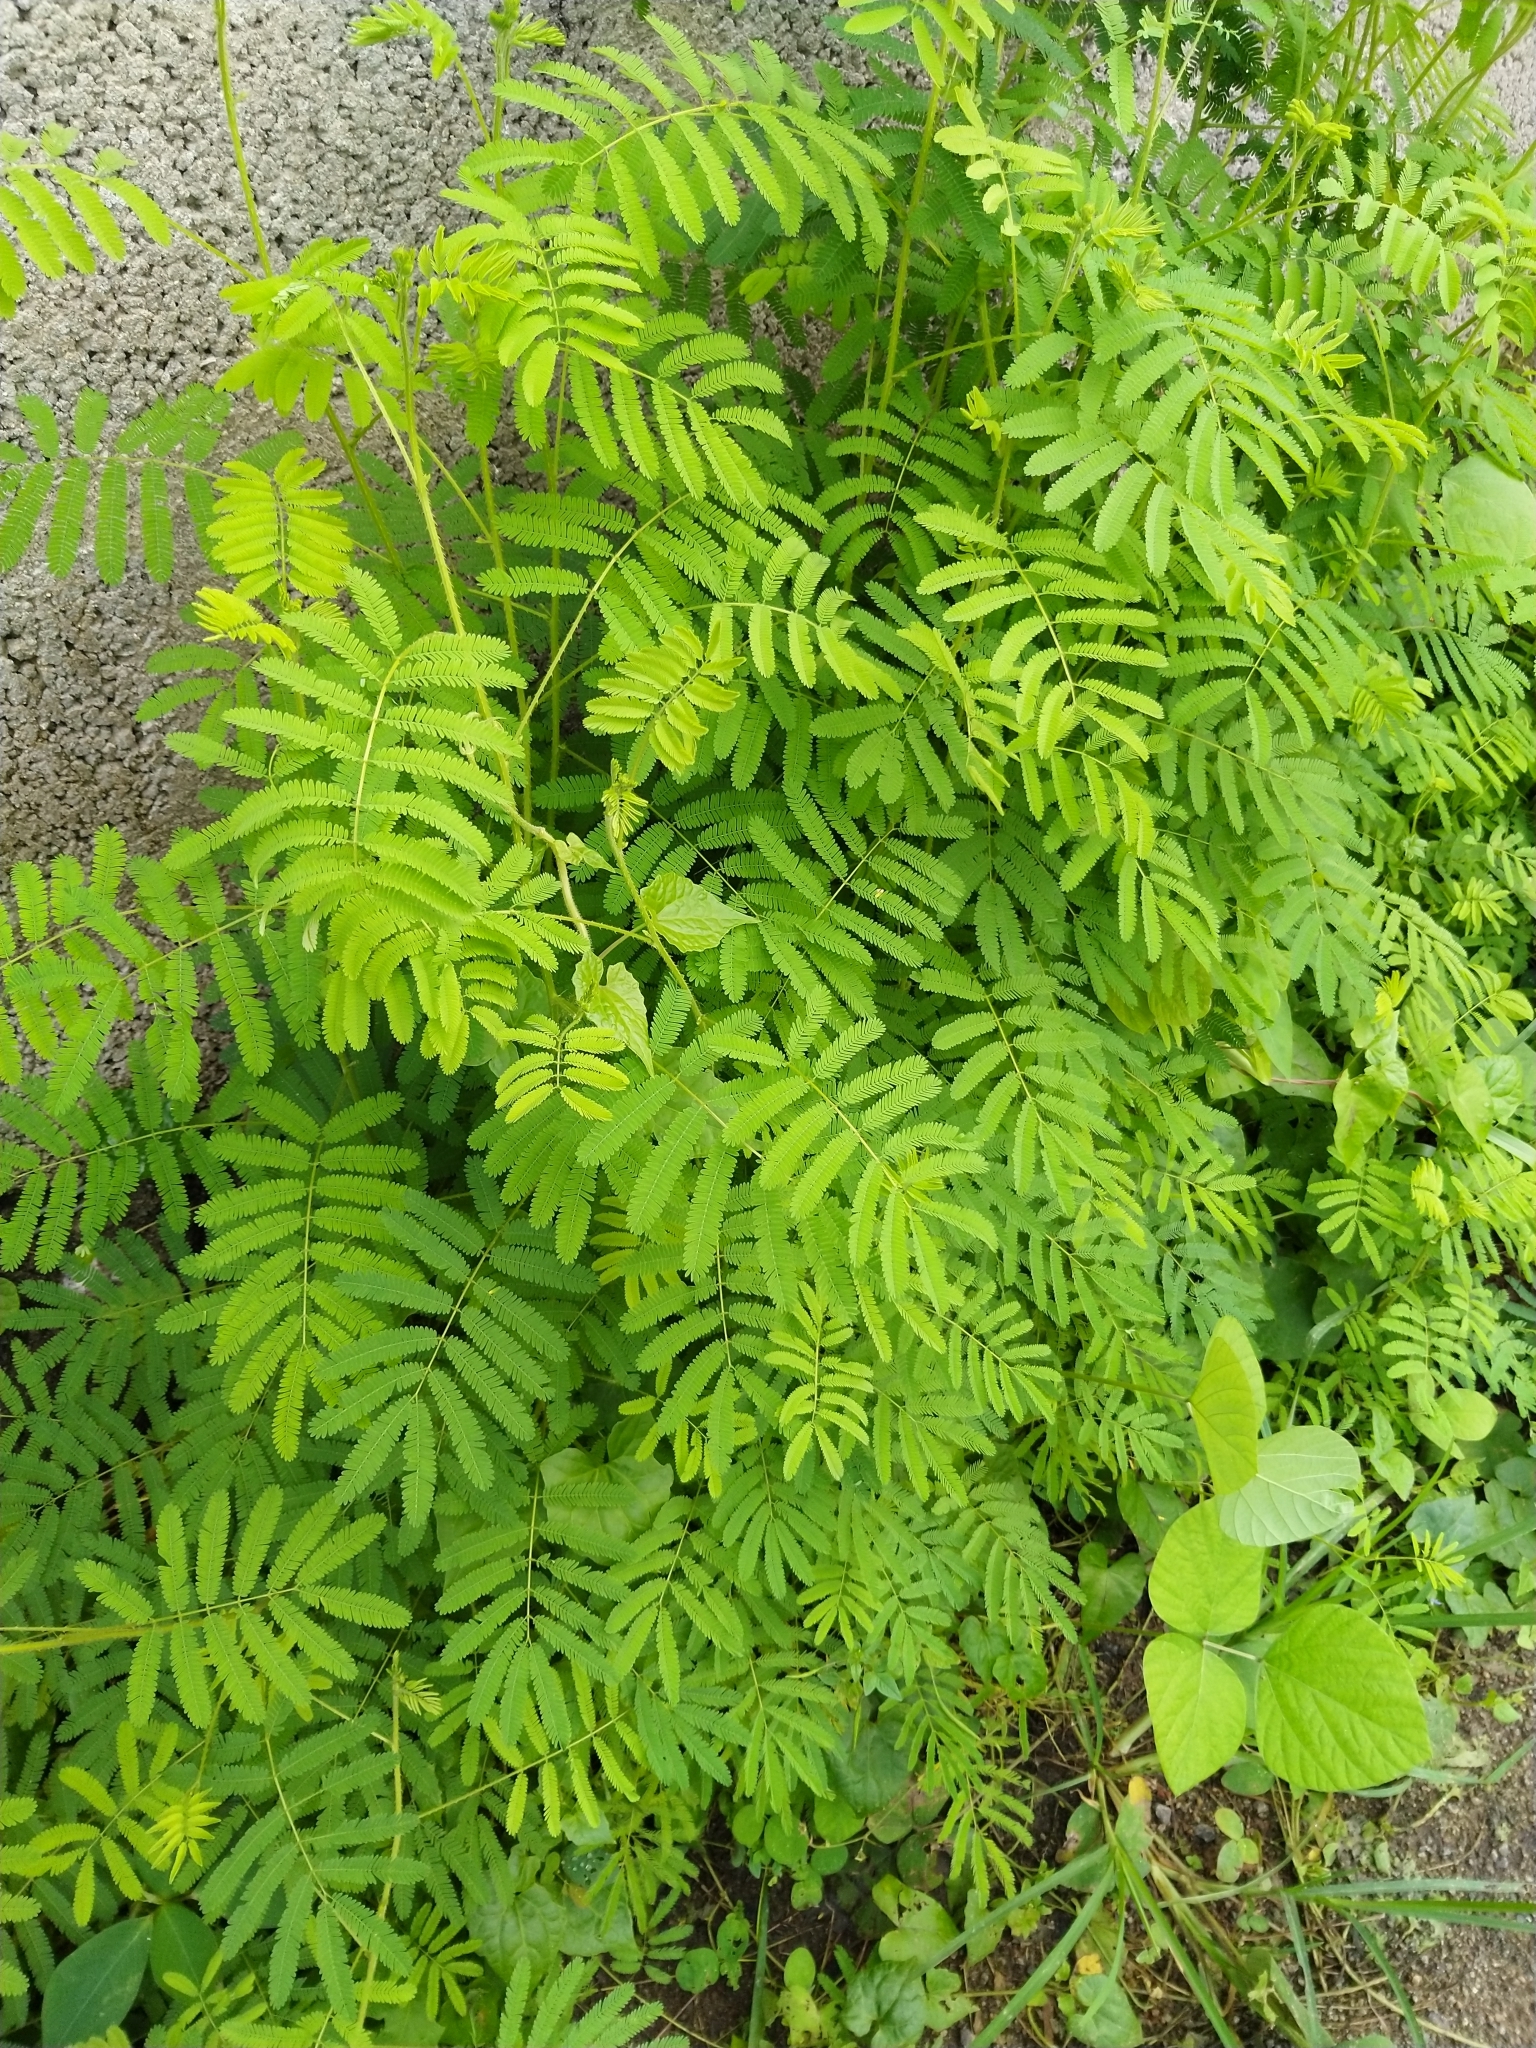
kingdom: Plantae
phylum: Tracheophyta
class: Magnoliopsida
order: Fabales
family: Fabaceae
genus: Mimosa
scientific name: Mimosa diplotricha
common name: Giant sensitive-plant
